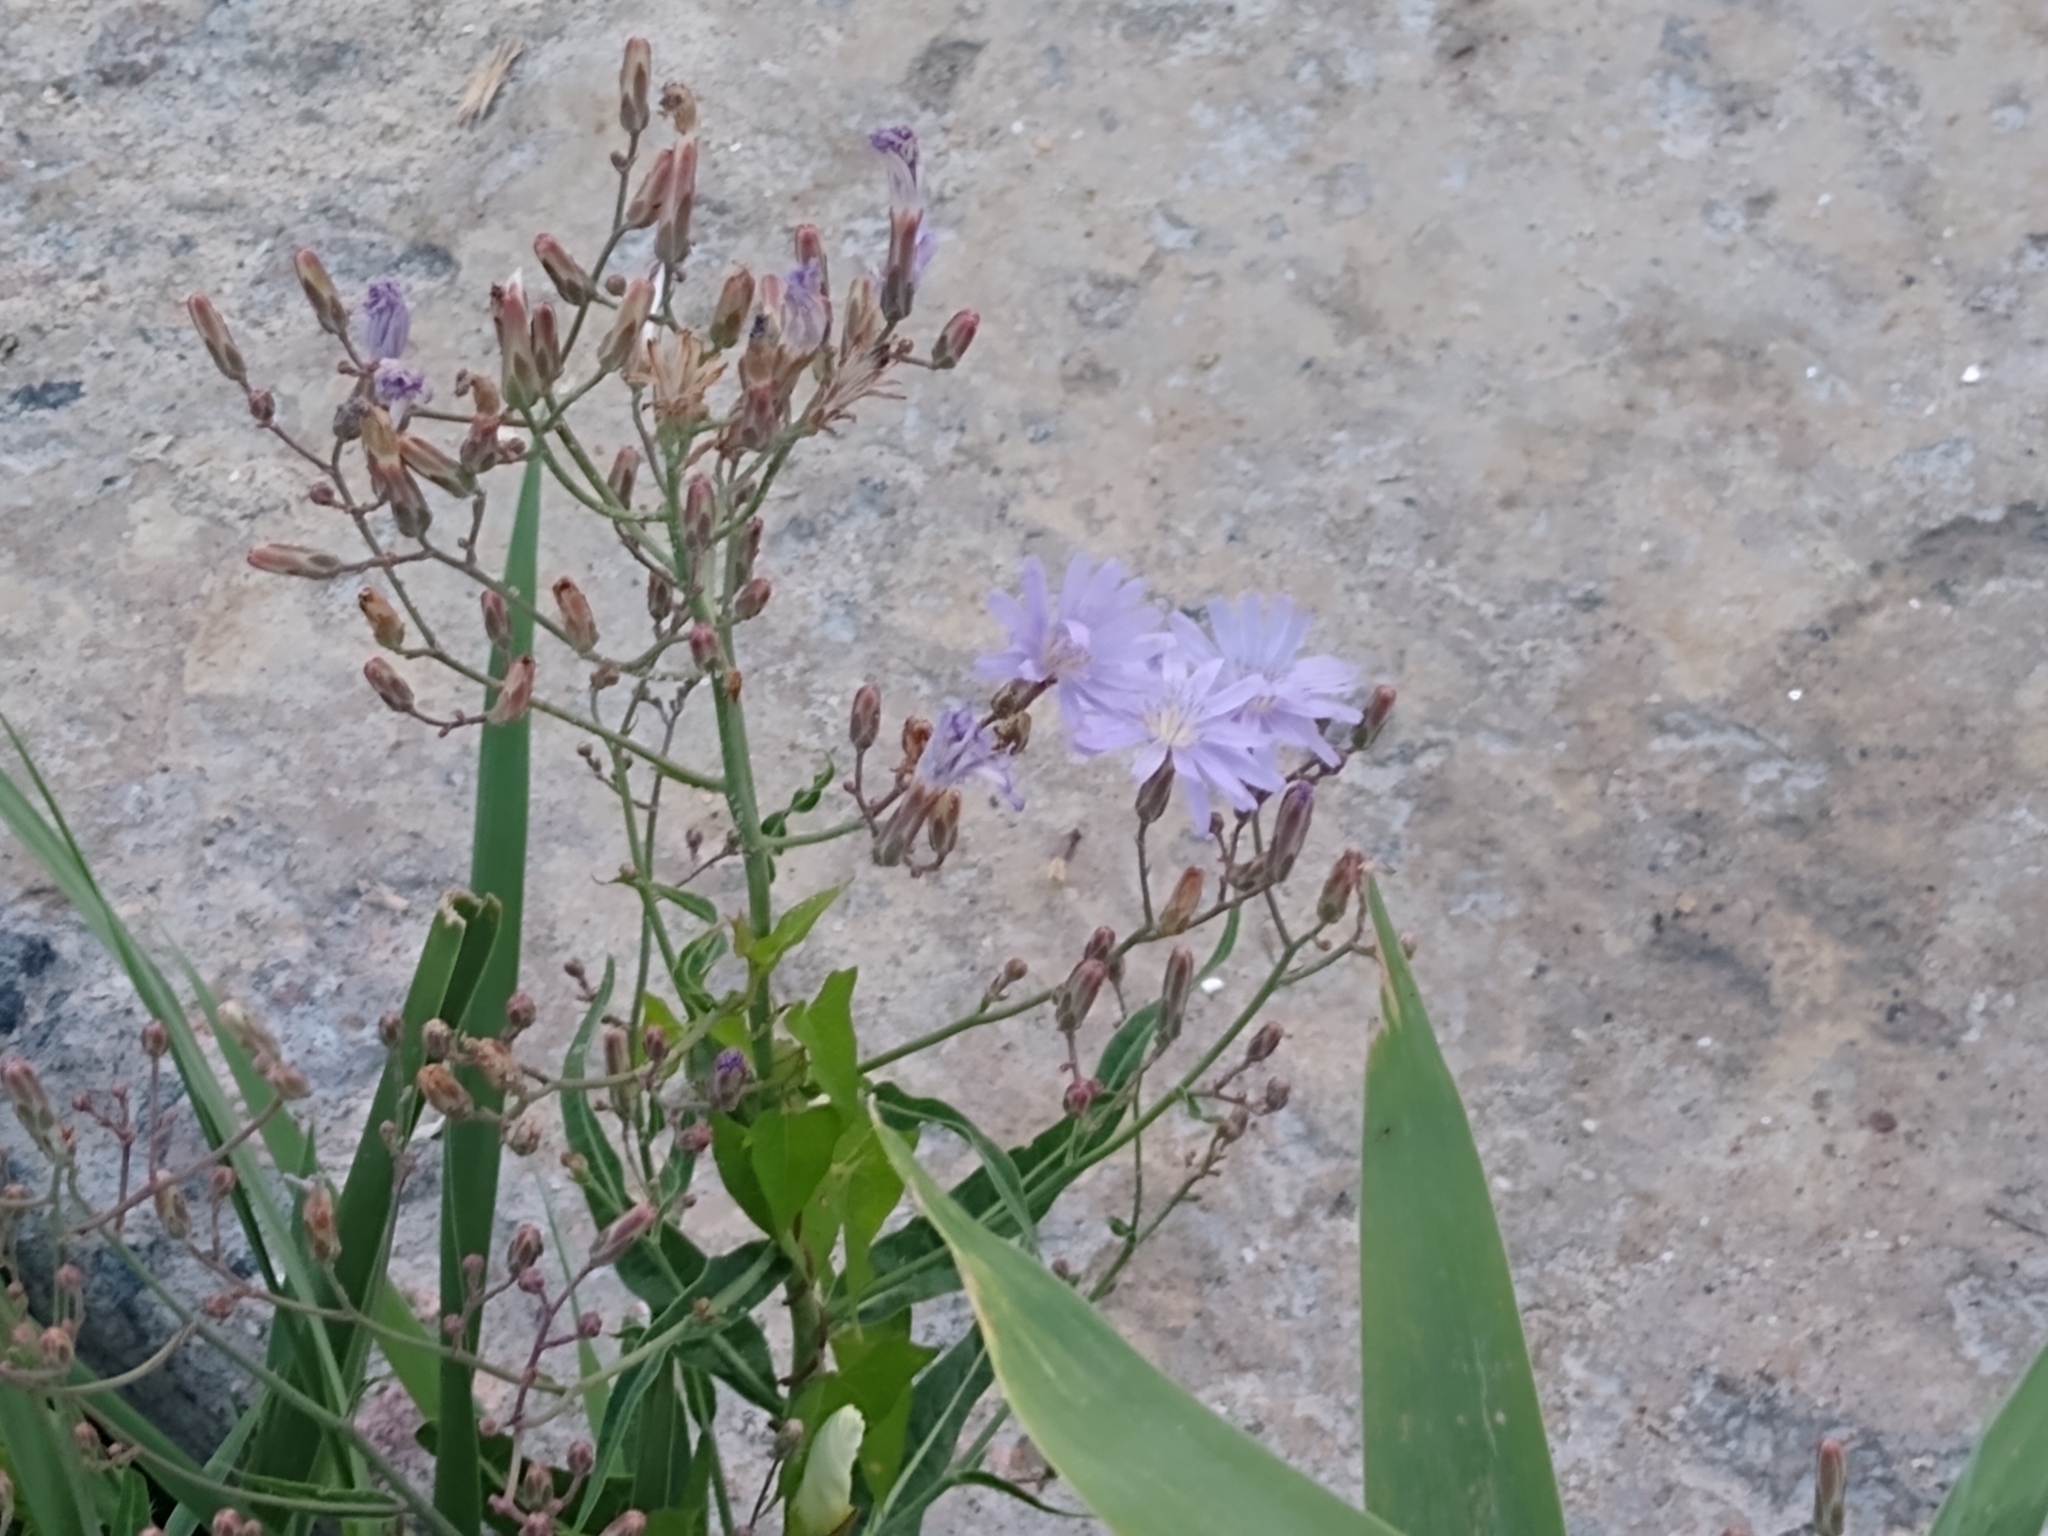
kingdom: Plantae
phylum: Tracheophyta
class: Magnoliopsida
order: Asterales
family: Asteraceae
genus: Lactuca
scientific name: Lactuca tatarica
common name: Blue lettuce
